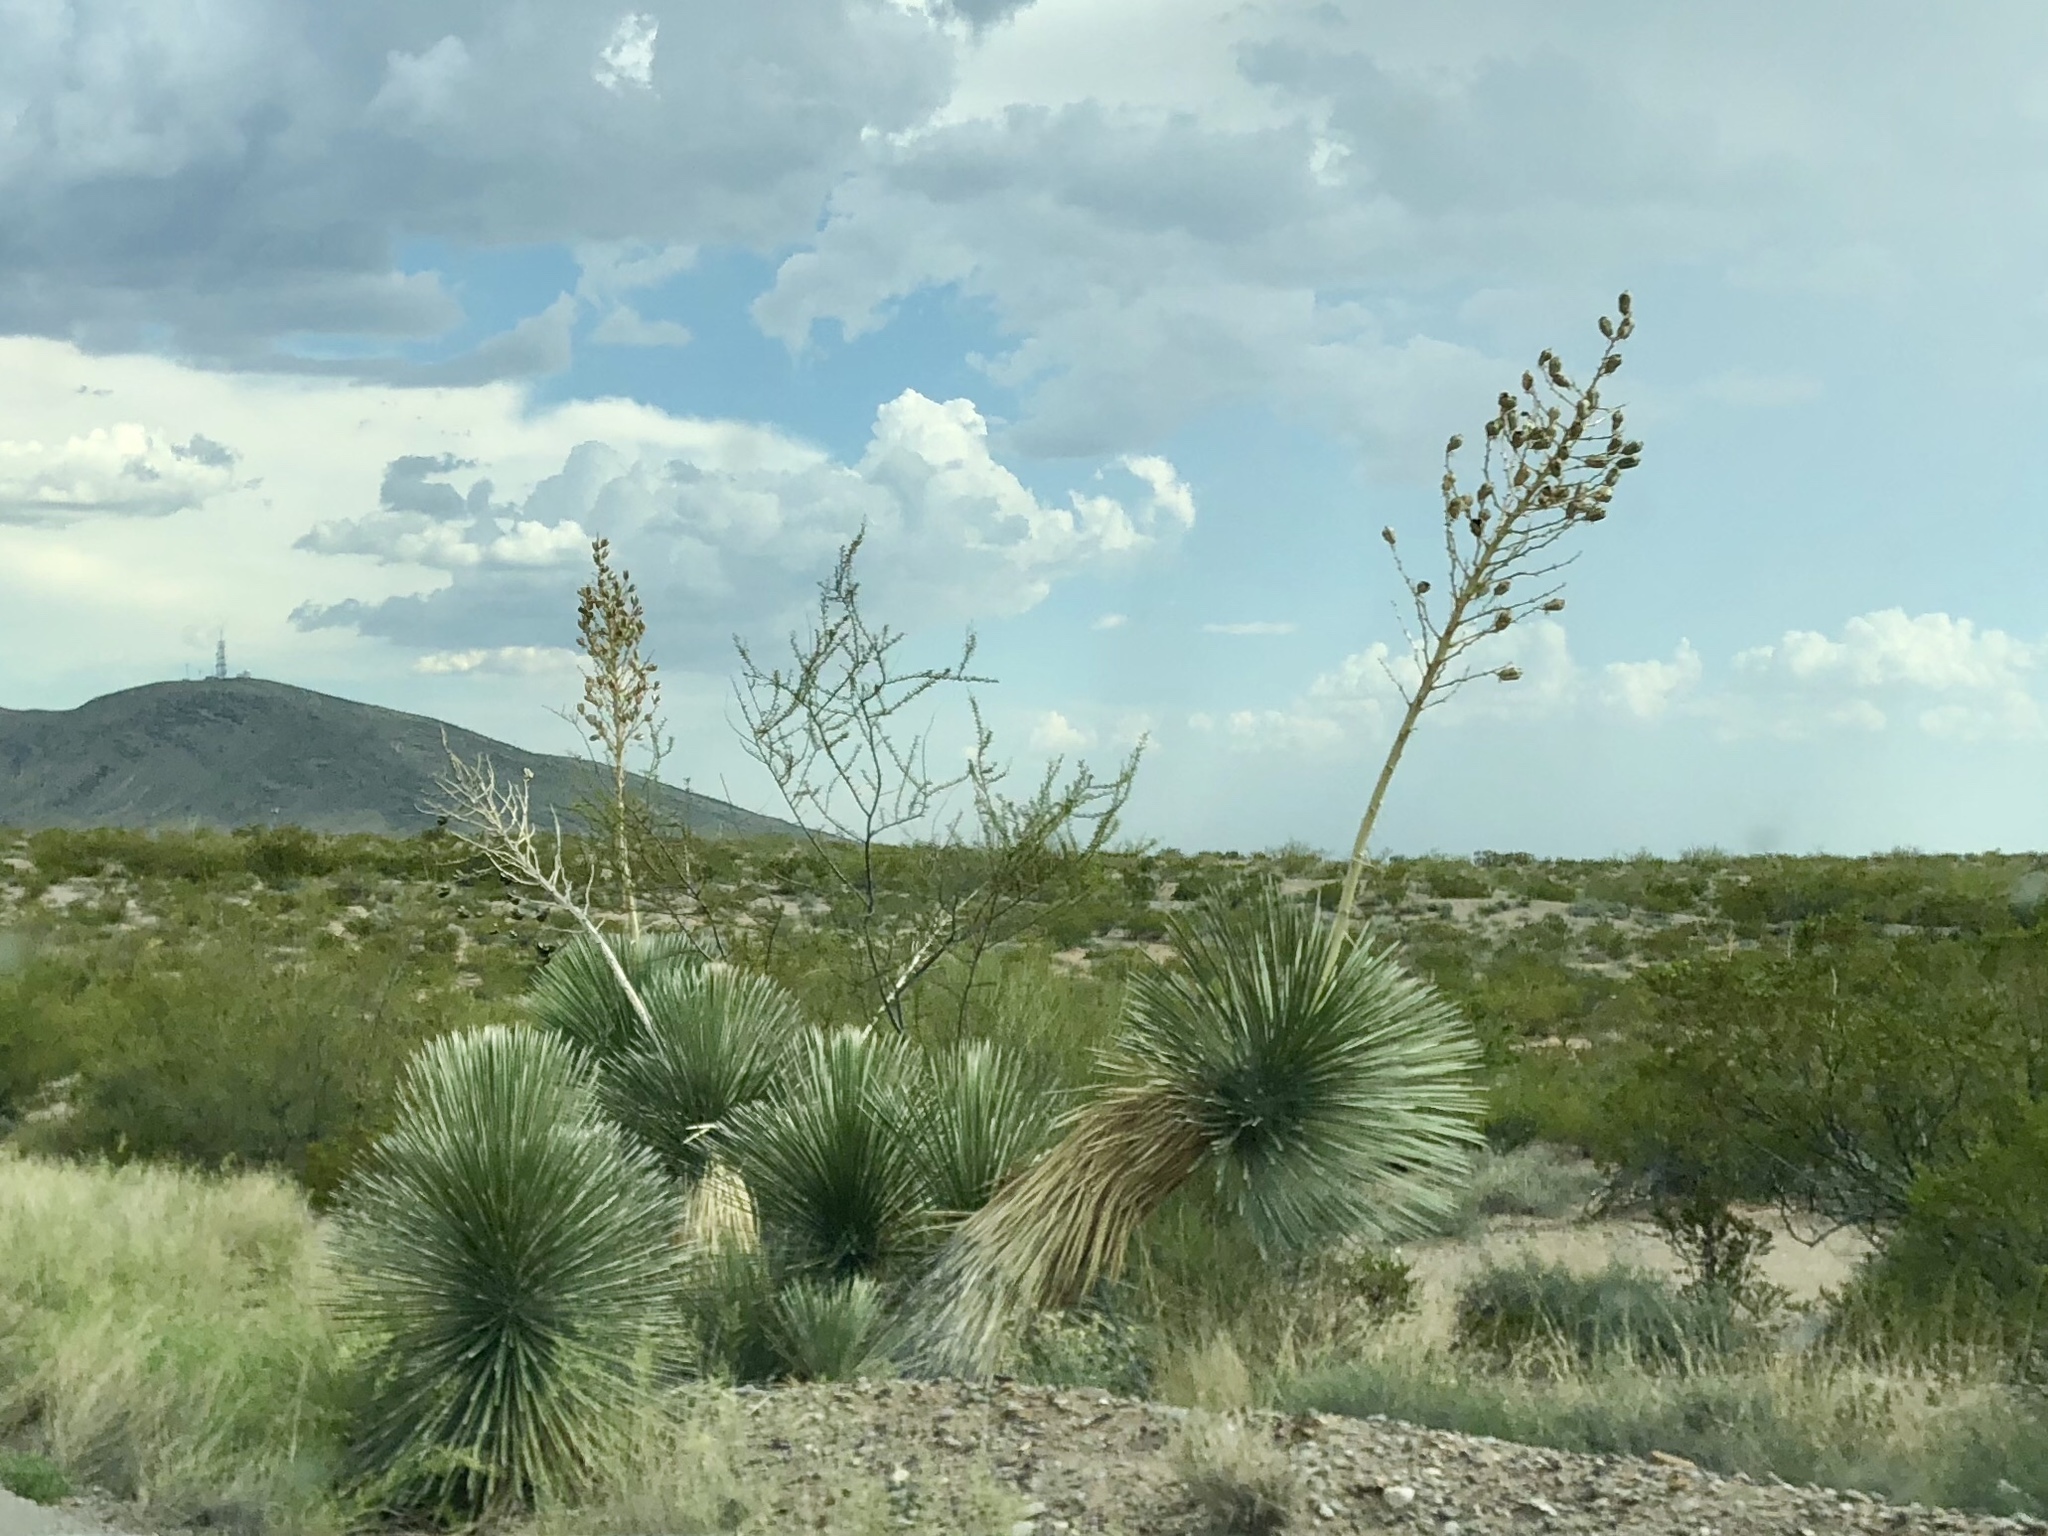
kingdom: Plantae
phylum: Tracheophyta
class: Liliopsida
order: Asparagales
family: Asparagaceae
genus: Yucca
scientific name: Yucca elata
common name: Palmella
